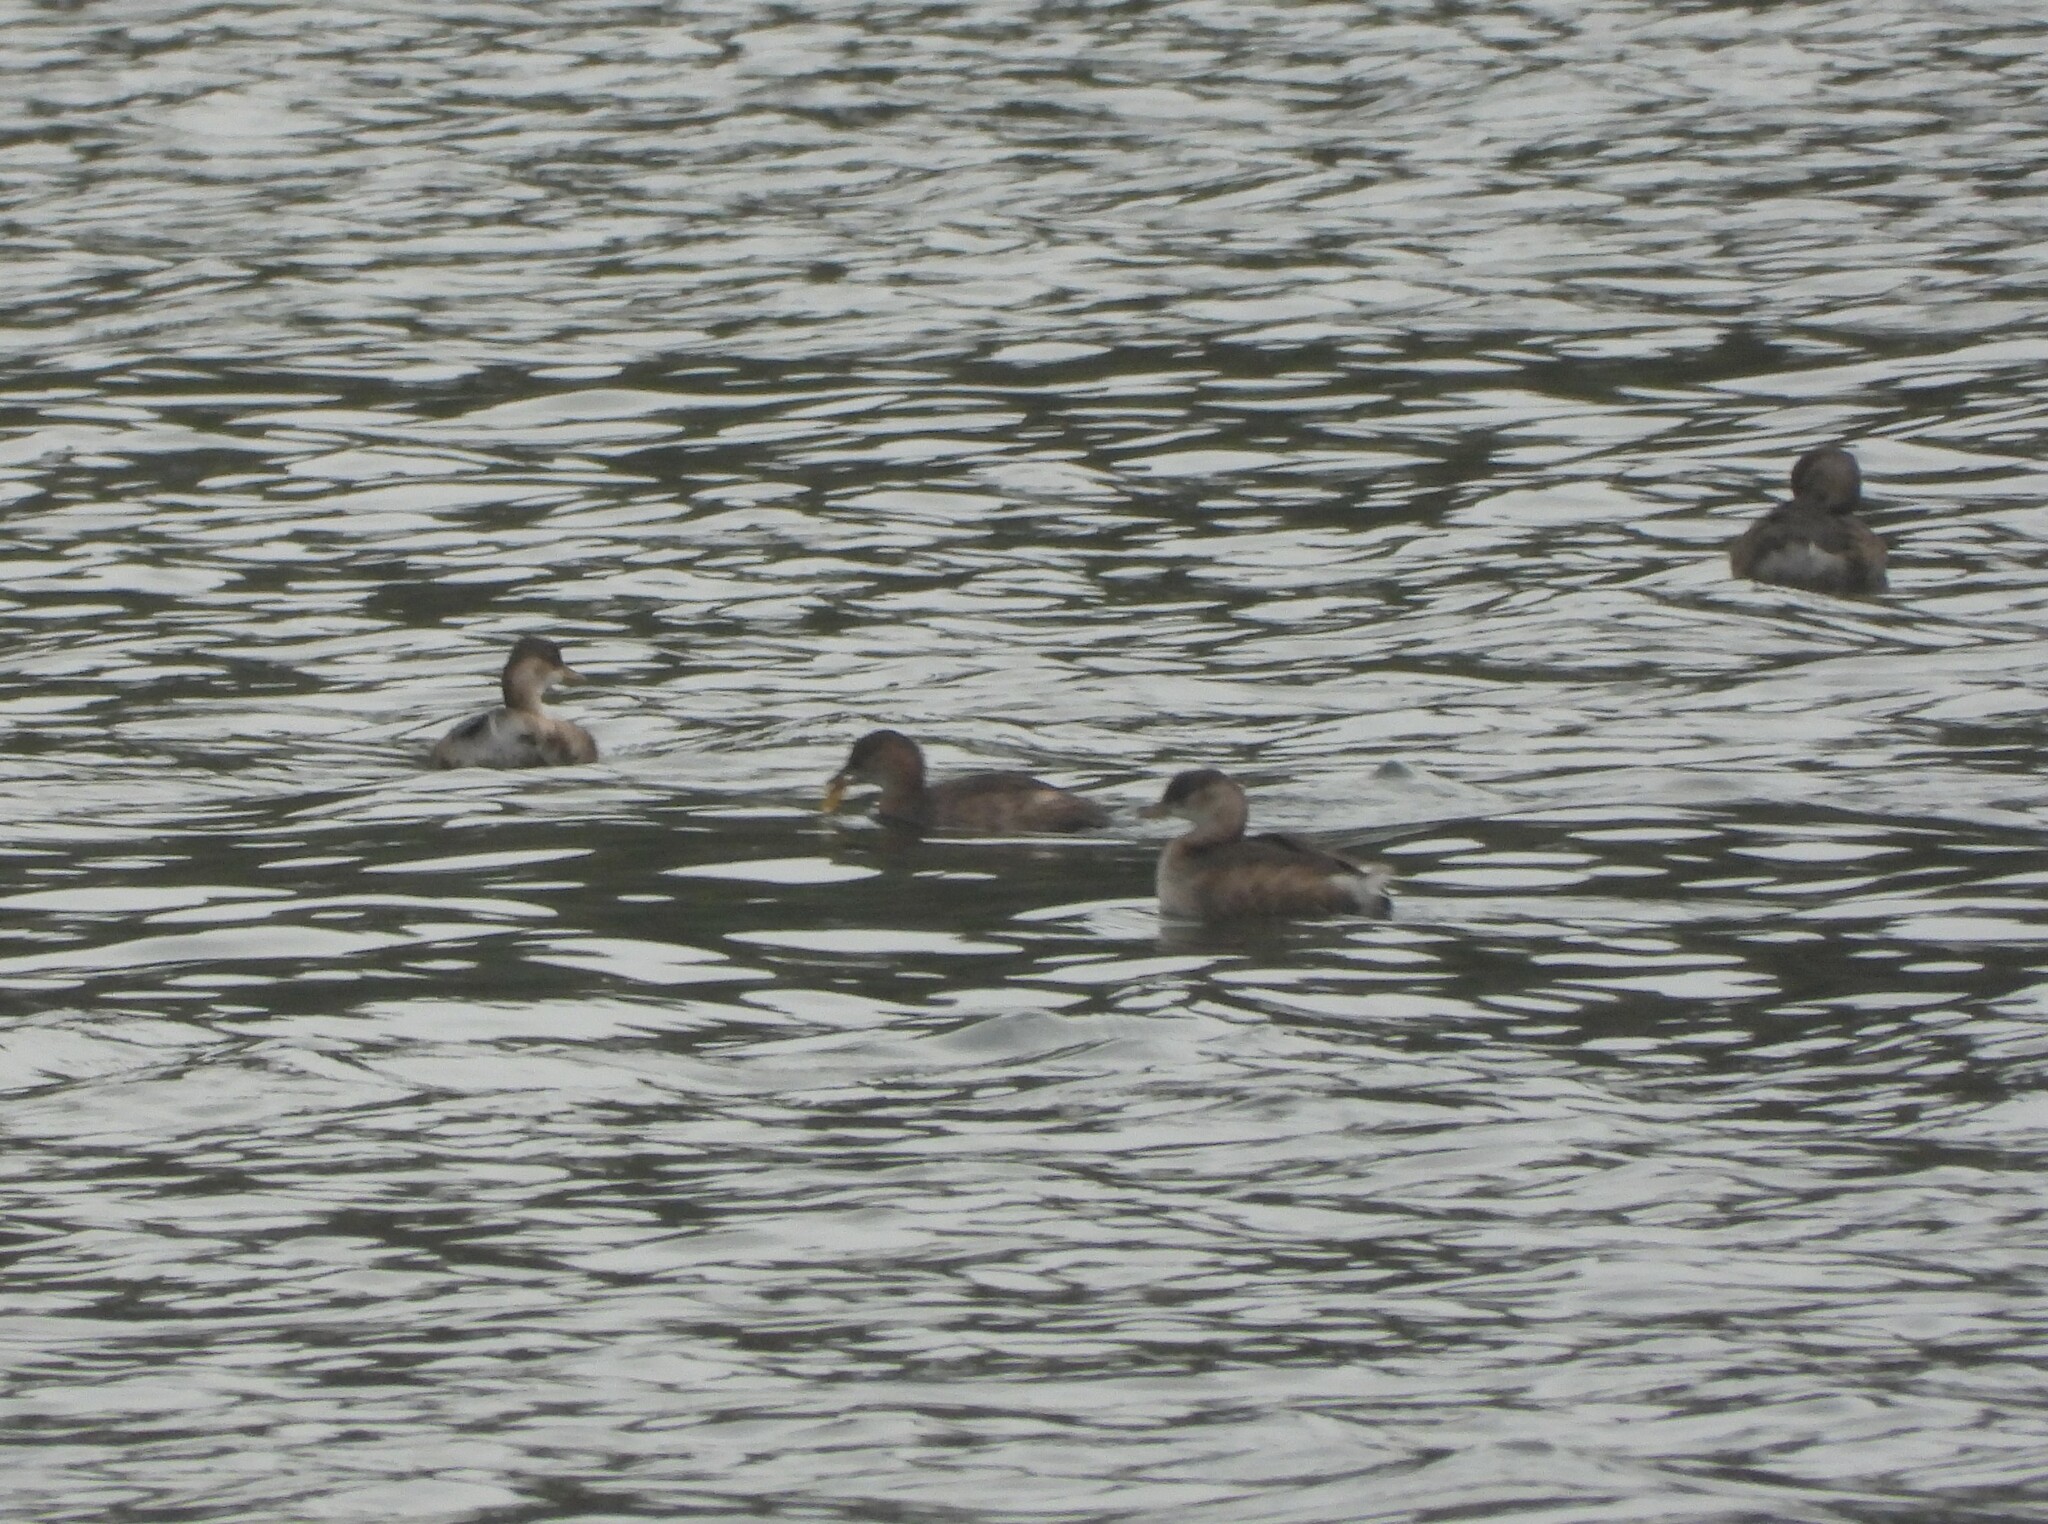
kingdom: Animalia
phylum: Chordata
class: Aves
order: Podicipediformes
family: Podicipedidae
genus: Tachybaptus
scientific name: Tachybaptus ruficollis
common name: Little grebe
